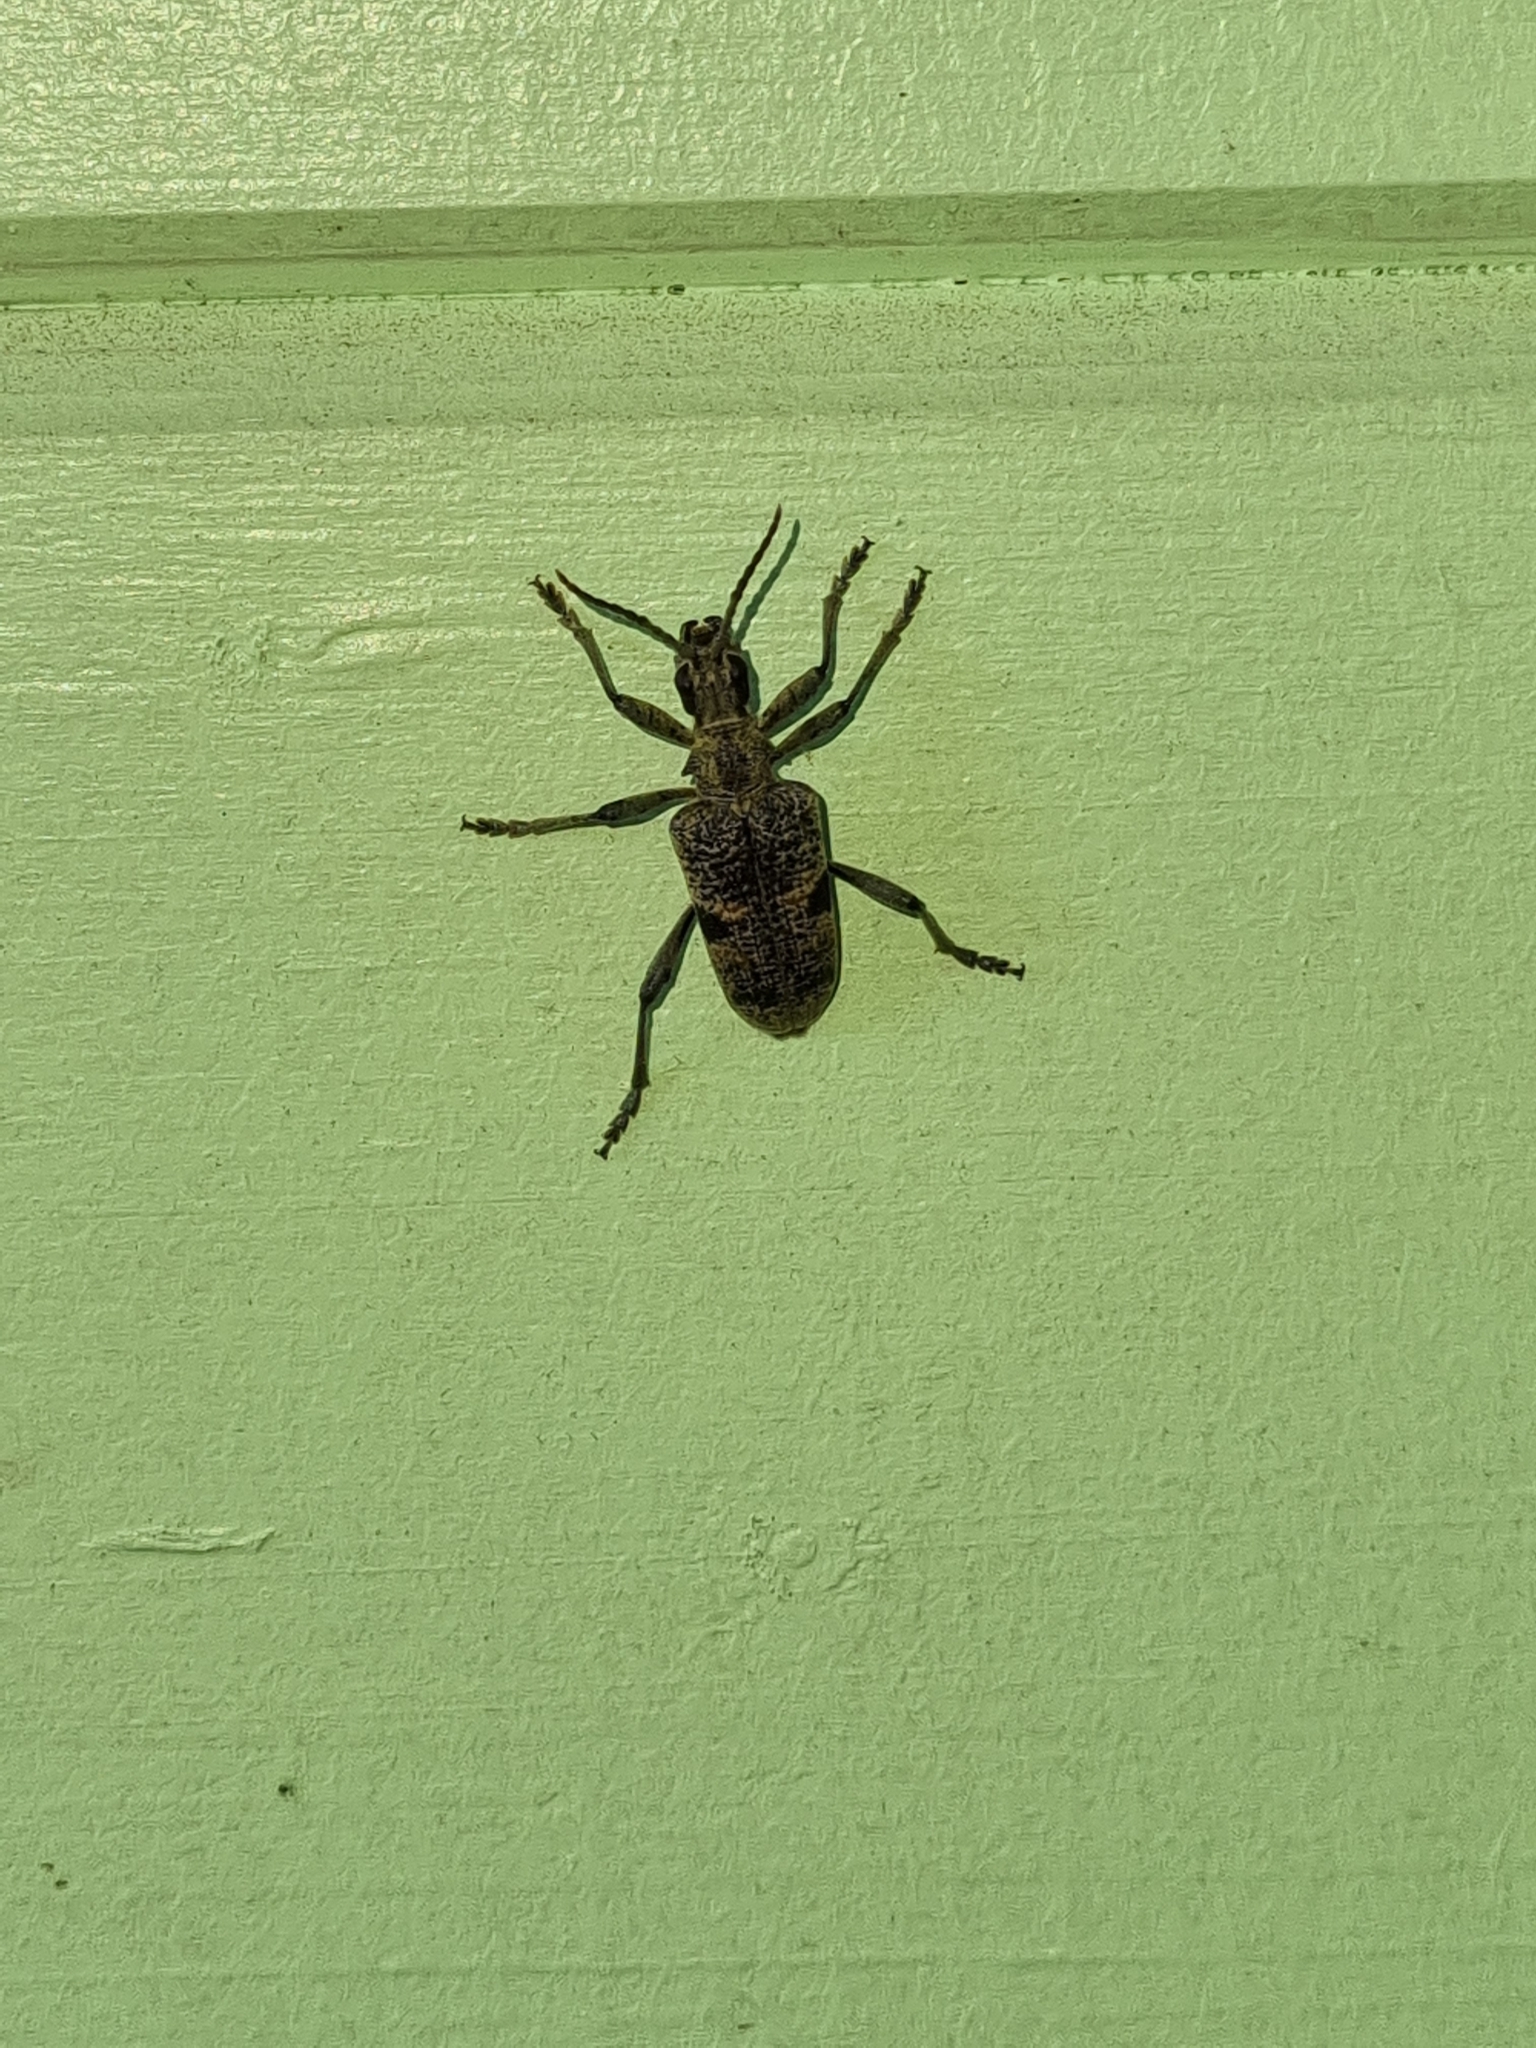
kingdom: Animalia
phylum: Arthropoda
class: Insecta
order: Coleoptera
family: Cerambycidae
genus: Rhagium
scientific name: Rhagium mordax
